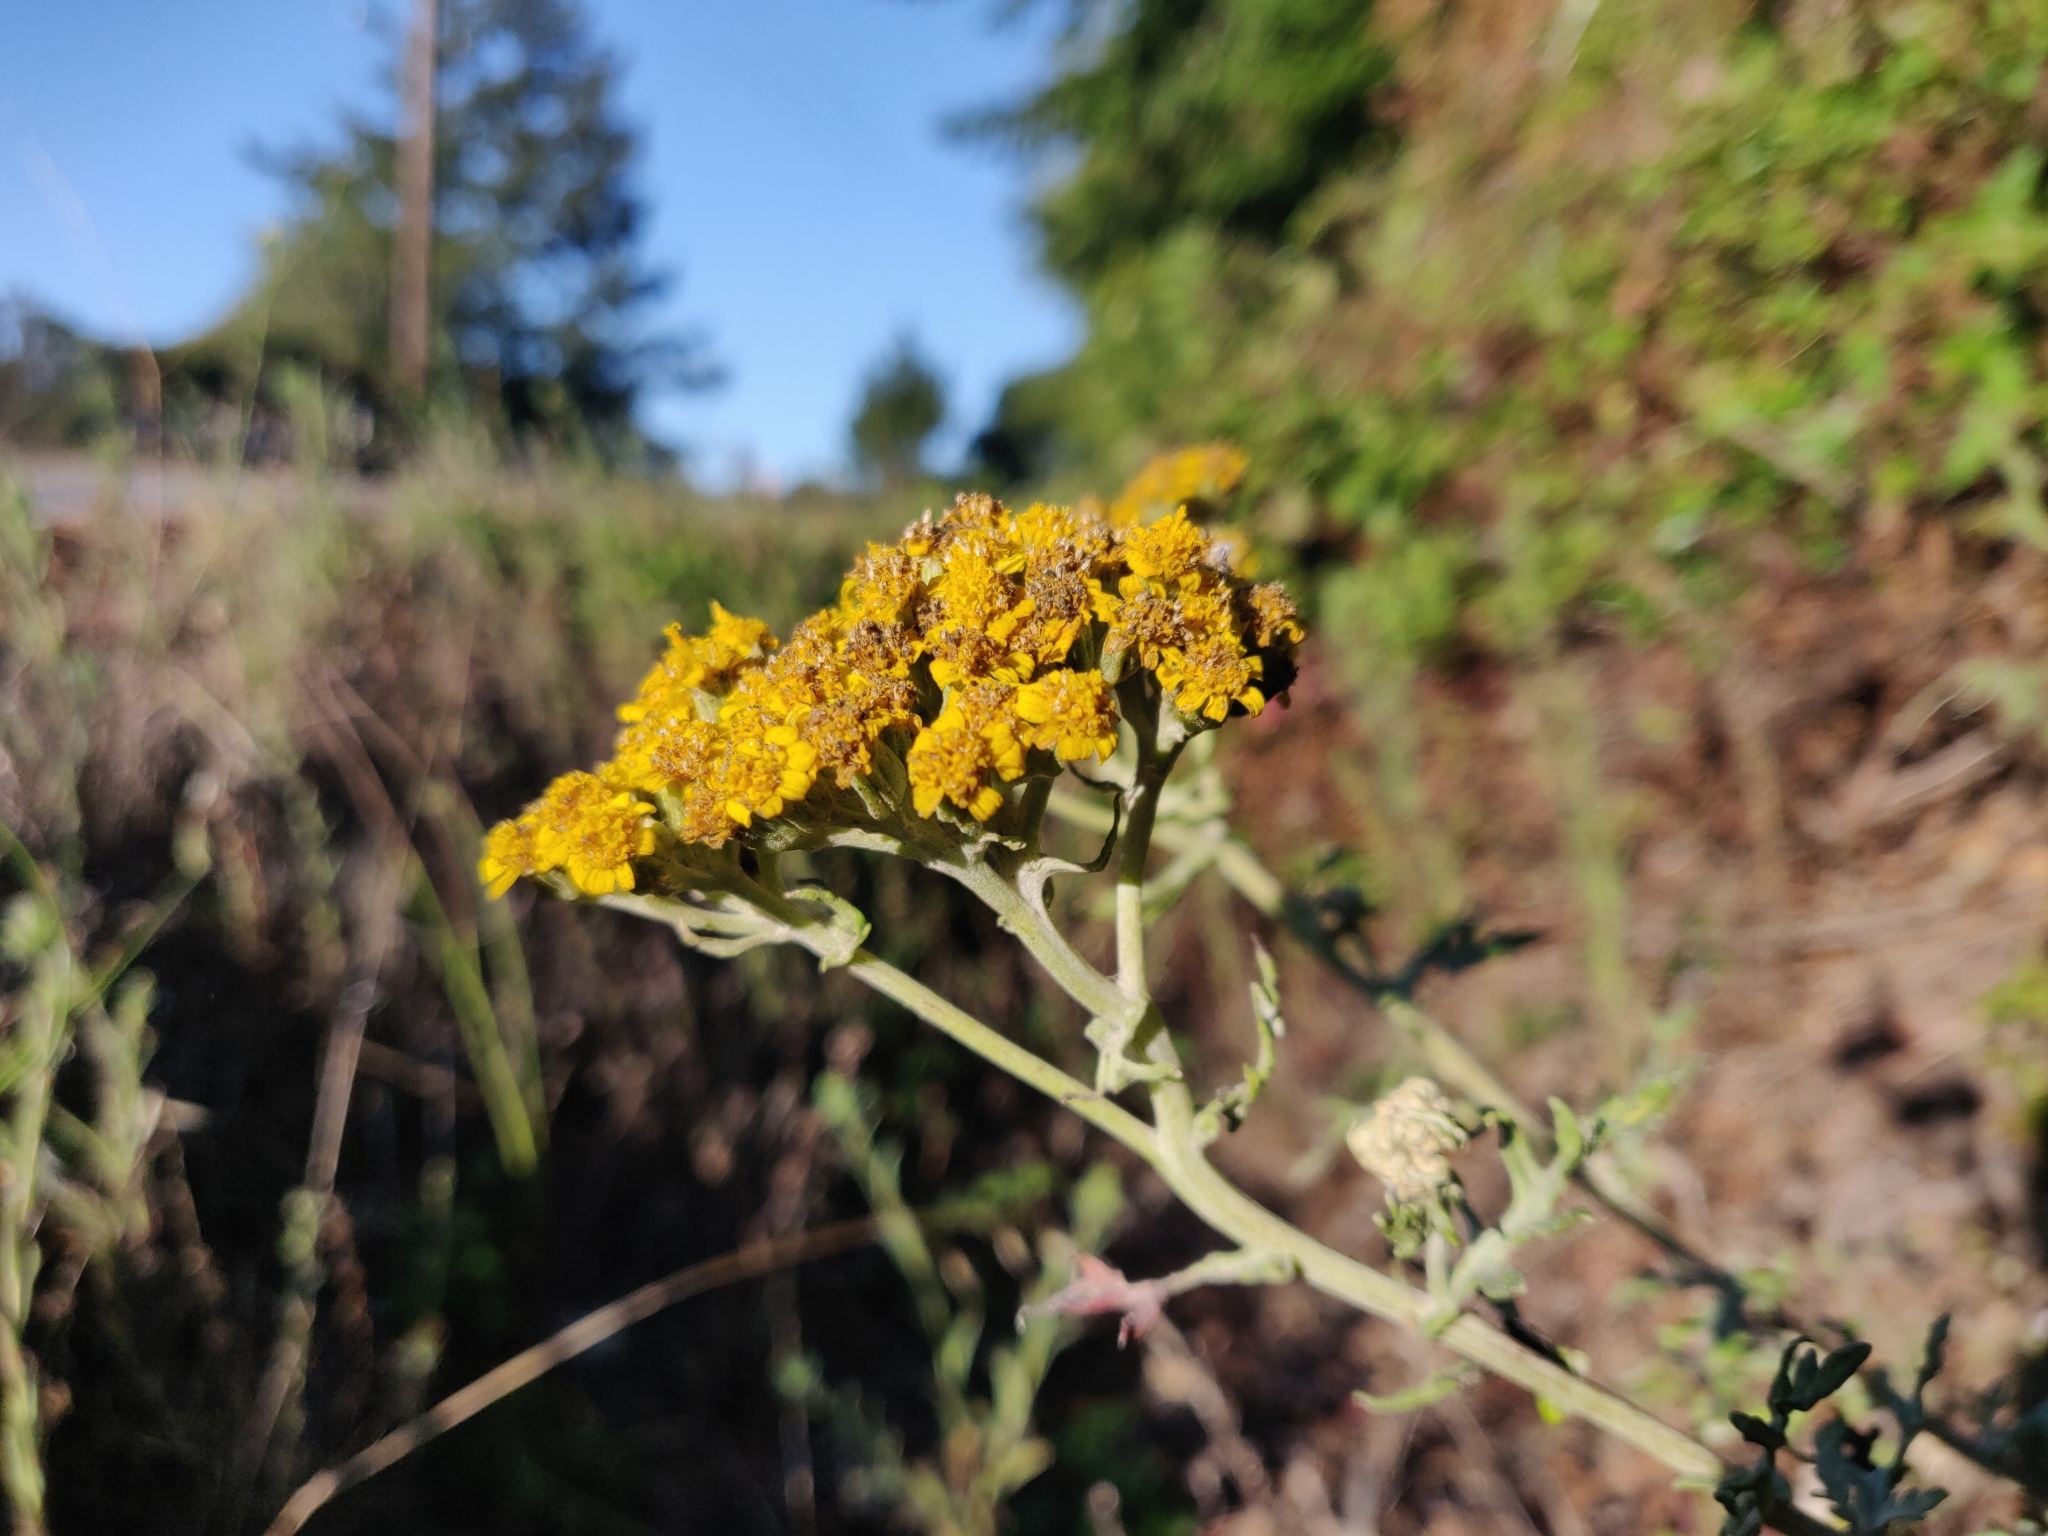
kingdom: Plantae
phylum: Tracheophyta
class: Magnoliopsida
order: Asterales
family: Asteraceae
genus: Eriophyllum
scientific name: Eriophyllum staechadifolium
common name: Lizardtail
